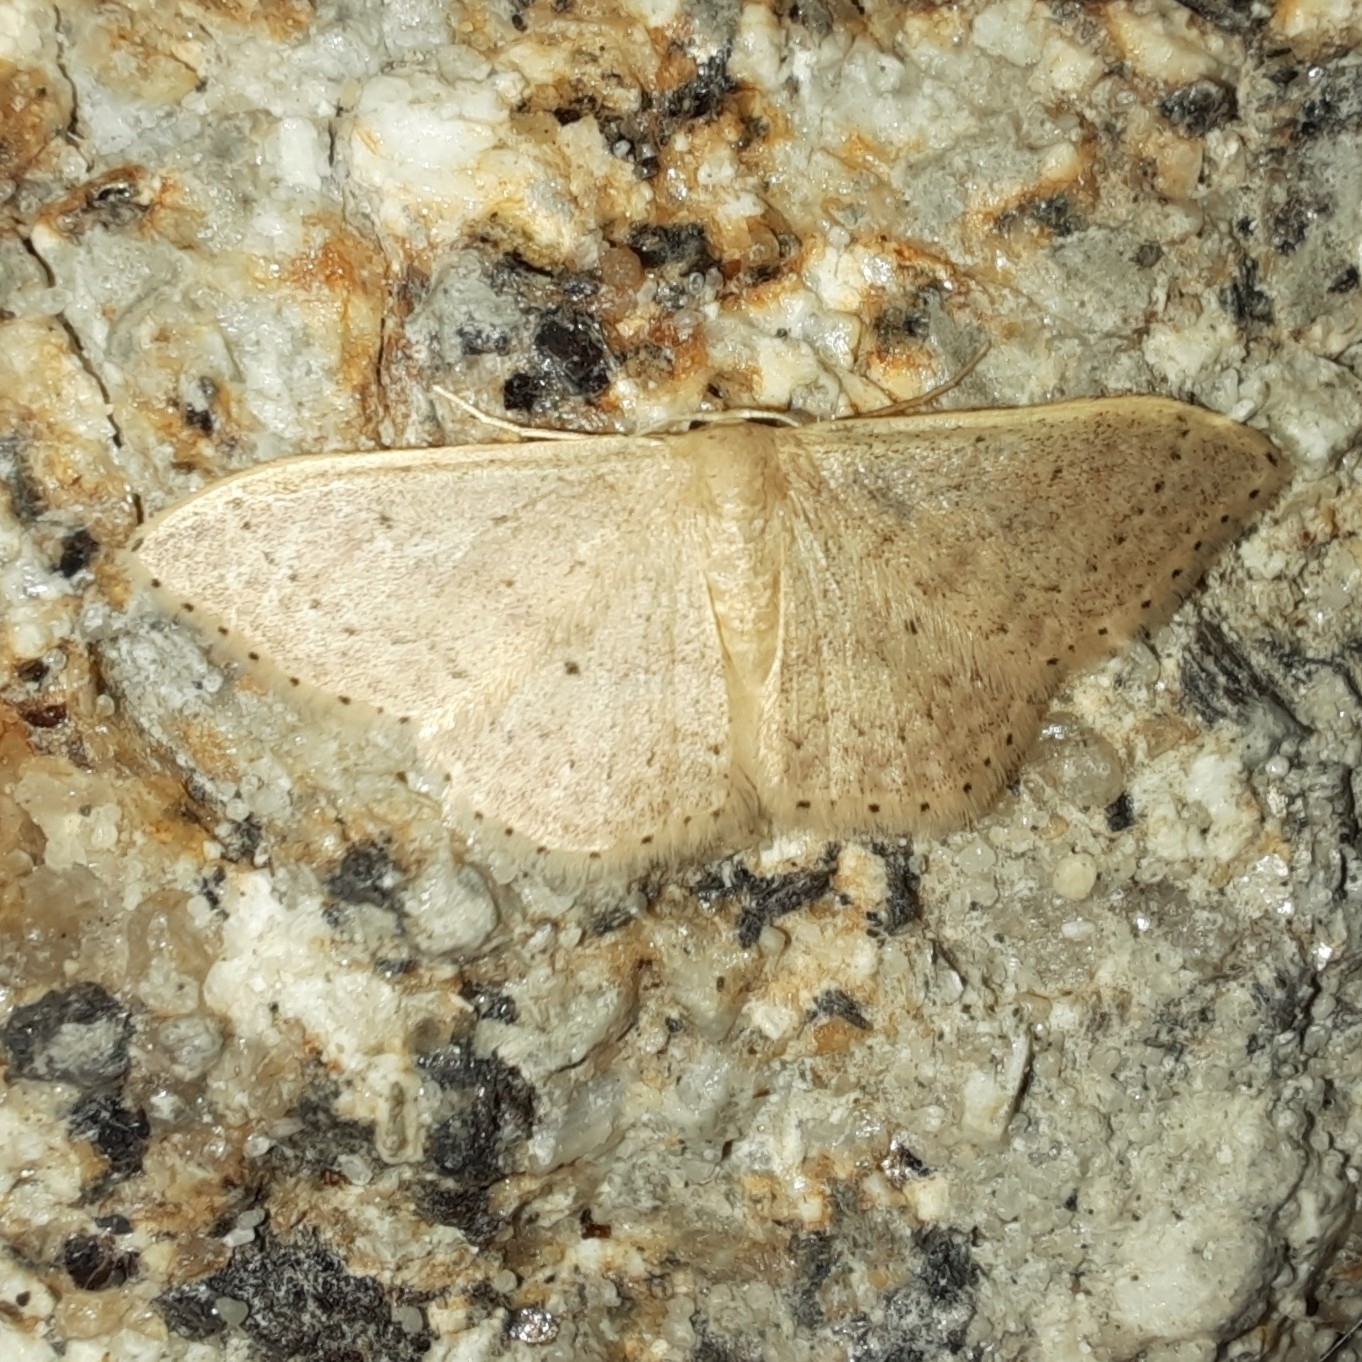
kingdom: Animalia
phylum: Arthropoda
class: Insecta
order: Lepidoptera
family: Geometridae
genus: Idaea
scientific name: Idaea eugeniata
